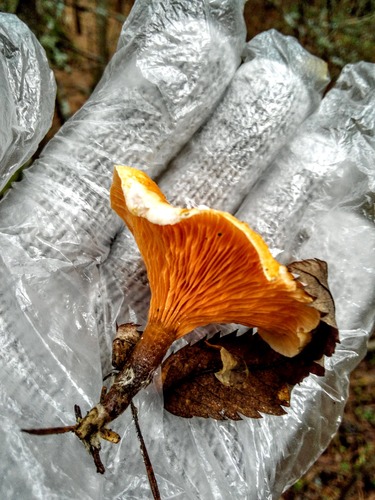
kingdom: Fungi
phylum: Basidiomycota
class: Agaricomycetes
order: Boletales
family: Hygrophoropsidaceae
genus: Hygrophoropsis
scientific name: Hygrophoropsis aurantiaca
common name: False chanterelle
